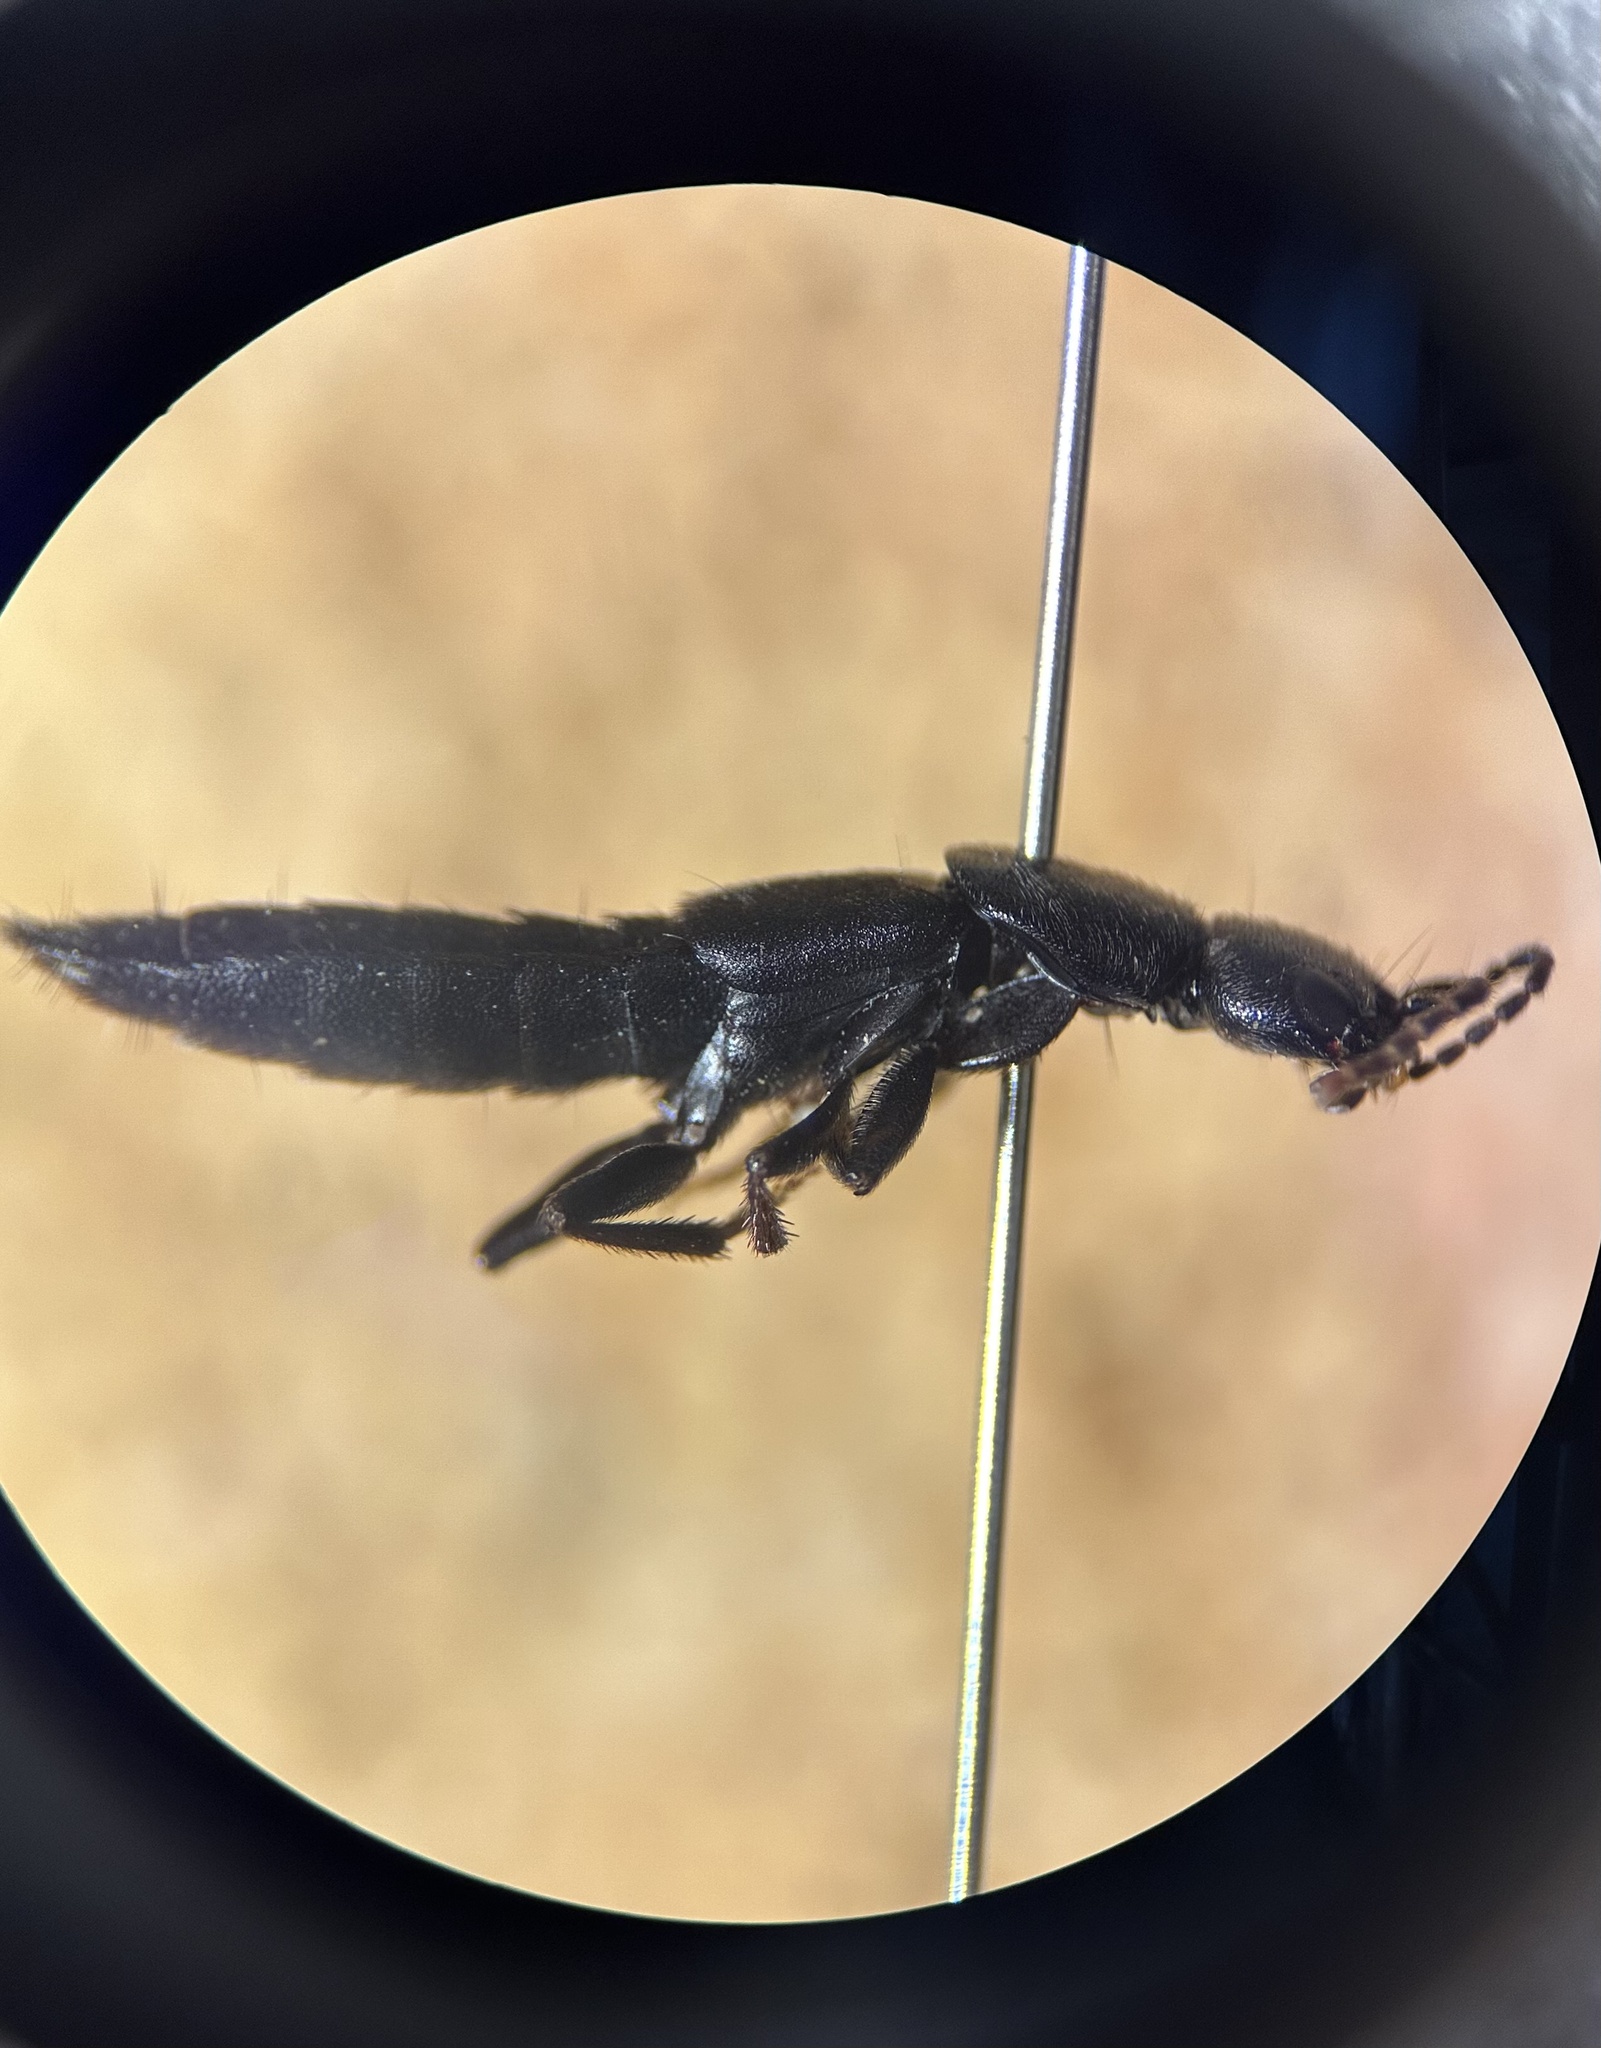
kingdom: Animalia
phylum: Arthropoda
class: Insecta
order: Coleoptera
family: Staphylinidae
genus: Tasgius
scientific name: Tasgius melanarius
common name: Rove beetle
